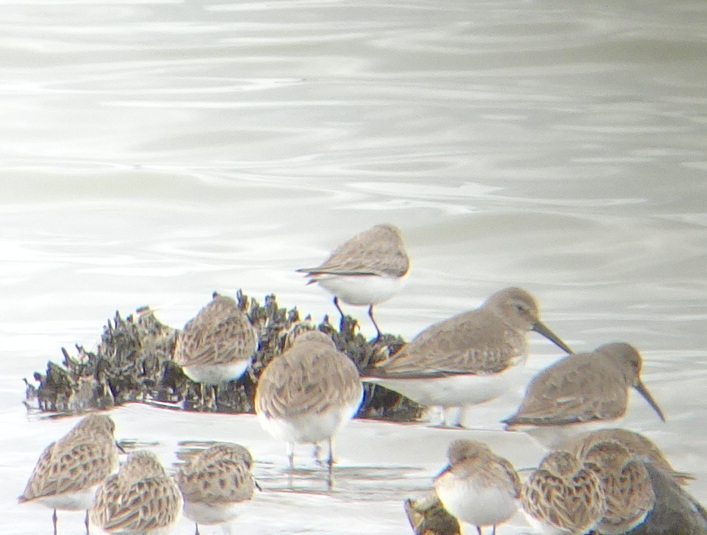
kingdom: Animalia
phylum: Chordata
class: Aves
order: Charadriiformes
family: Scolopacidae
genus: Calidris
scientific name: Calidris mauri
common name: Western sandpiper
